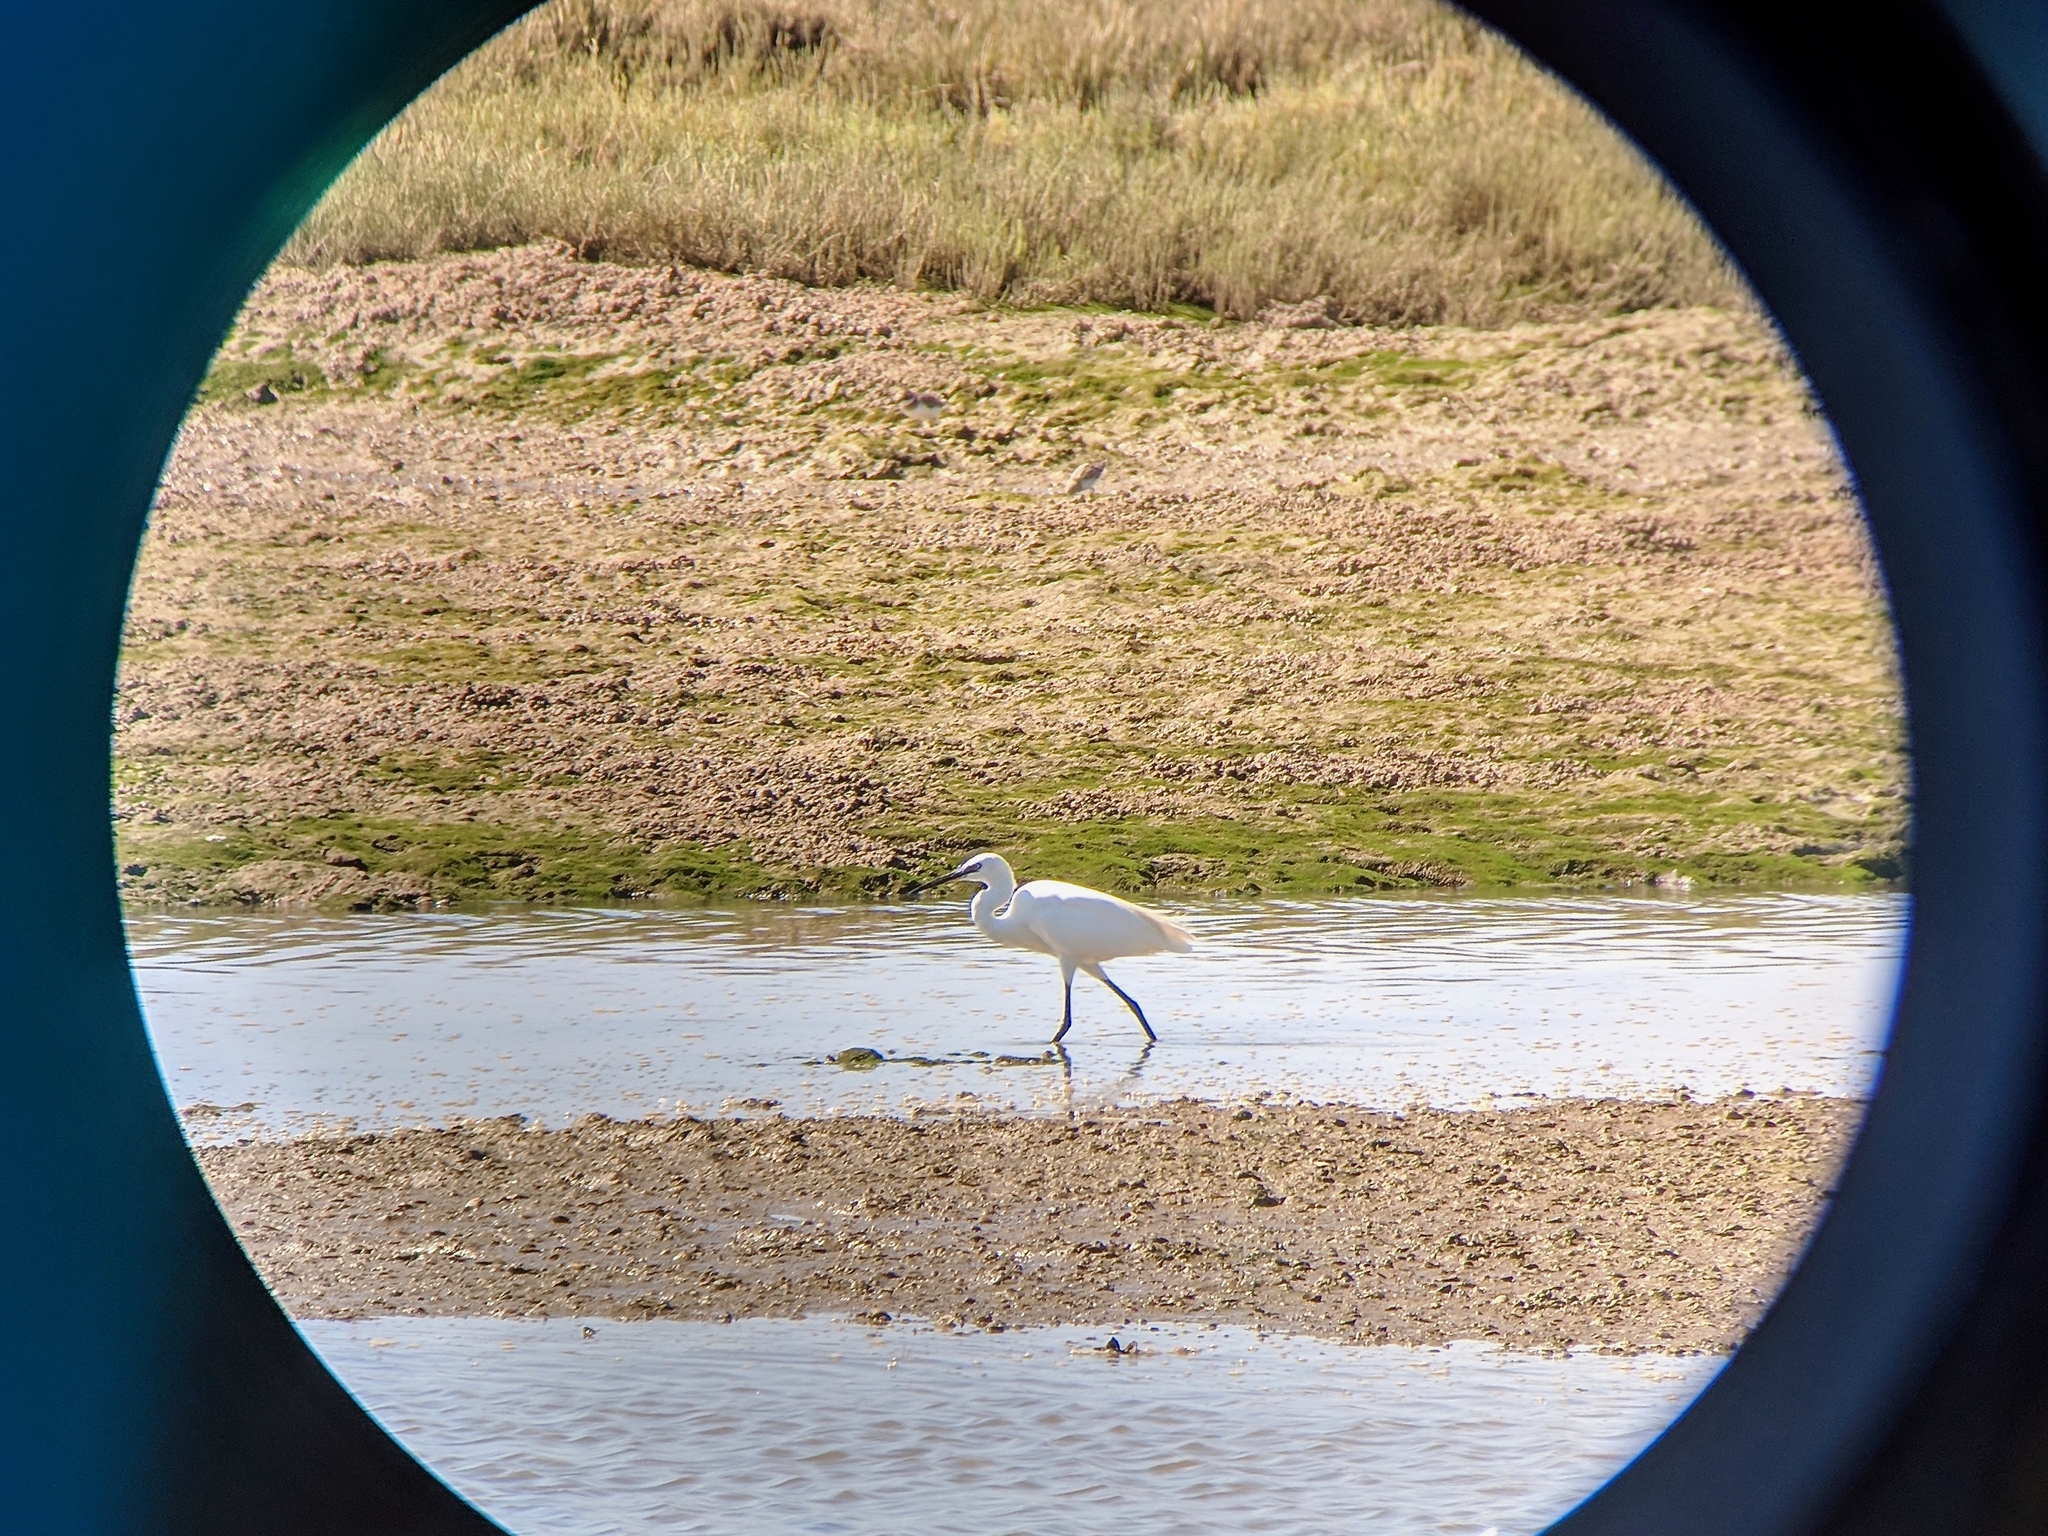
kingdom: Animalia
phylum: Chordata
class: Aves
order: Pelecaniformes
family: Ardeidae
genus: Egretta
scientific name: Egretta garzetta
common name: Little egret
